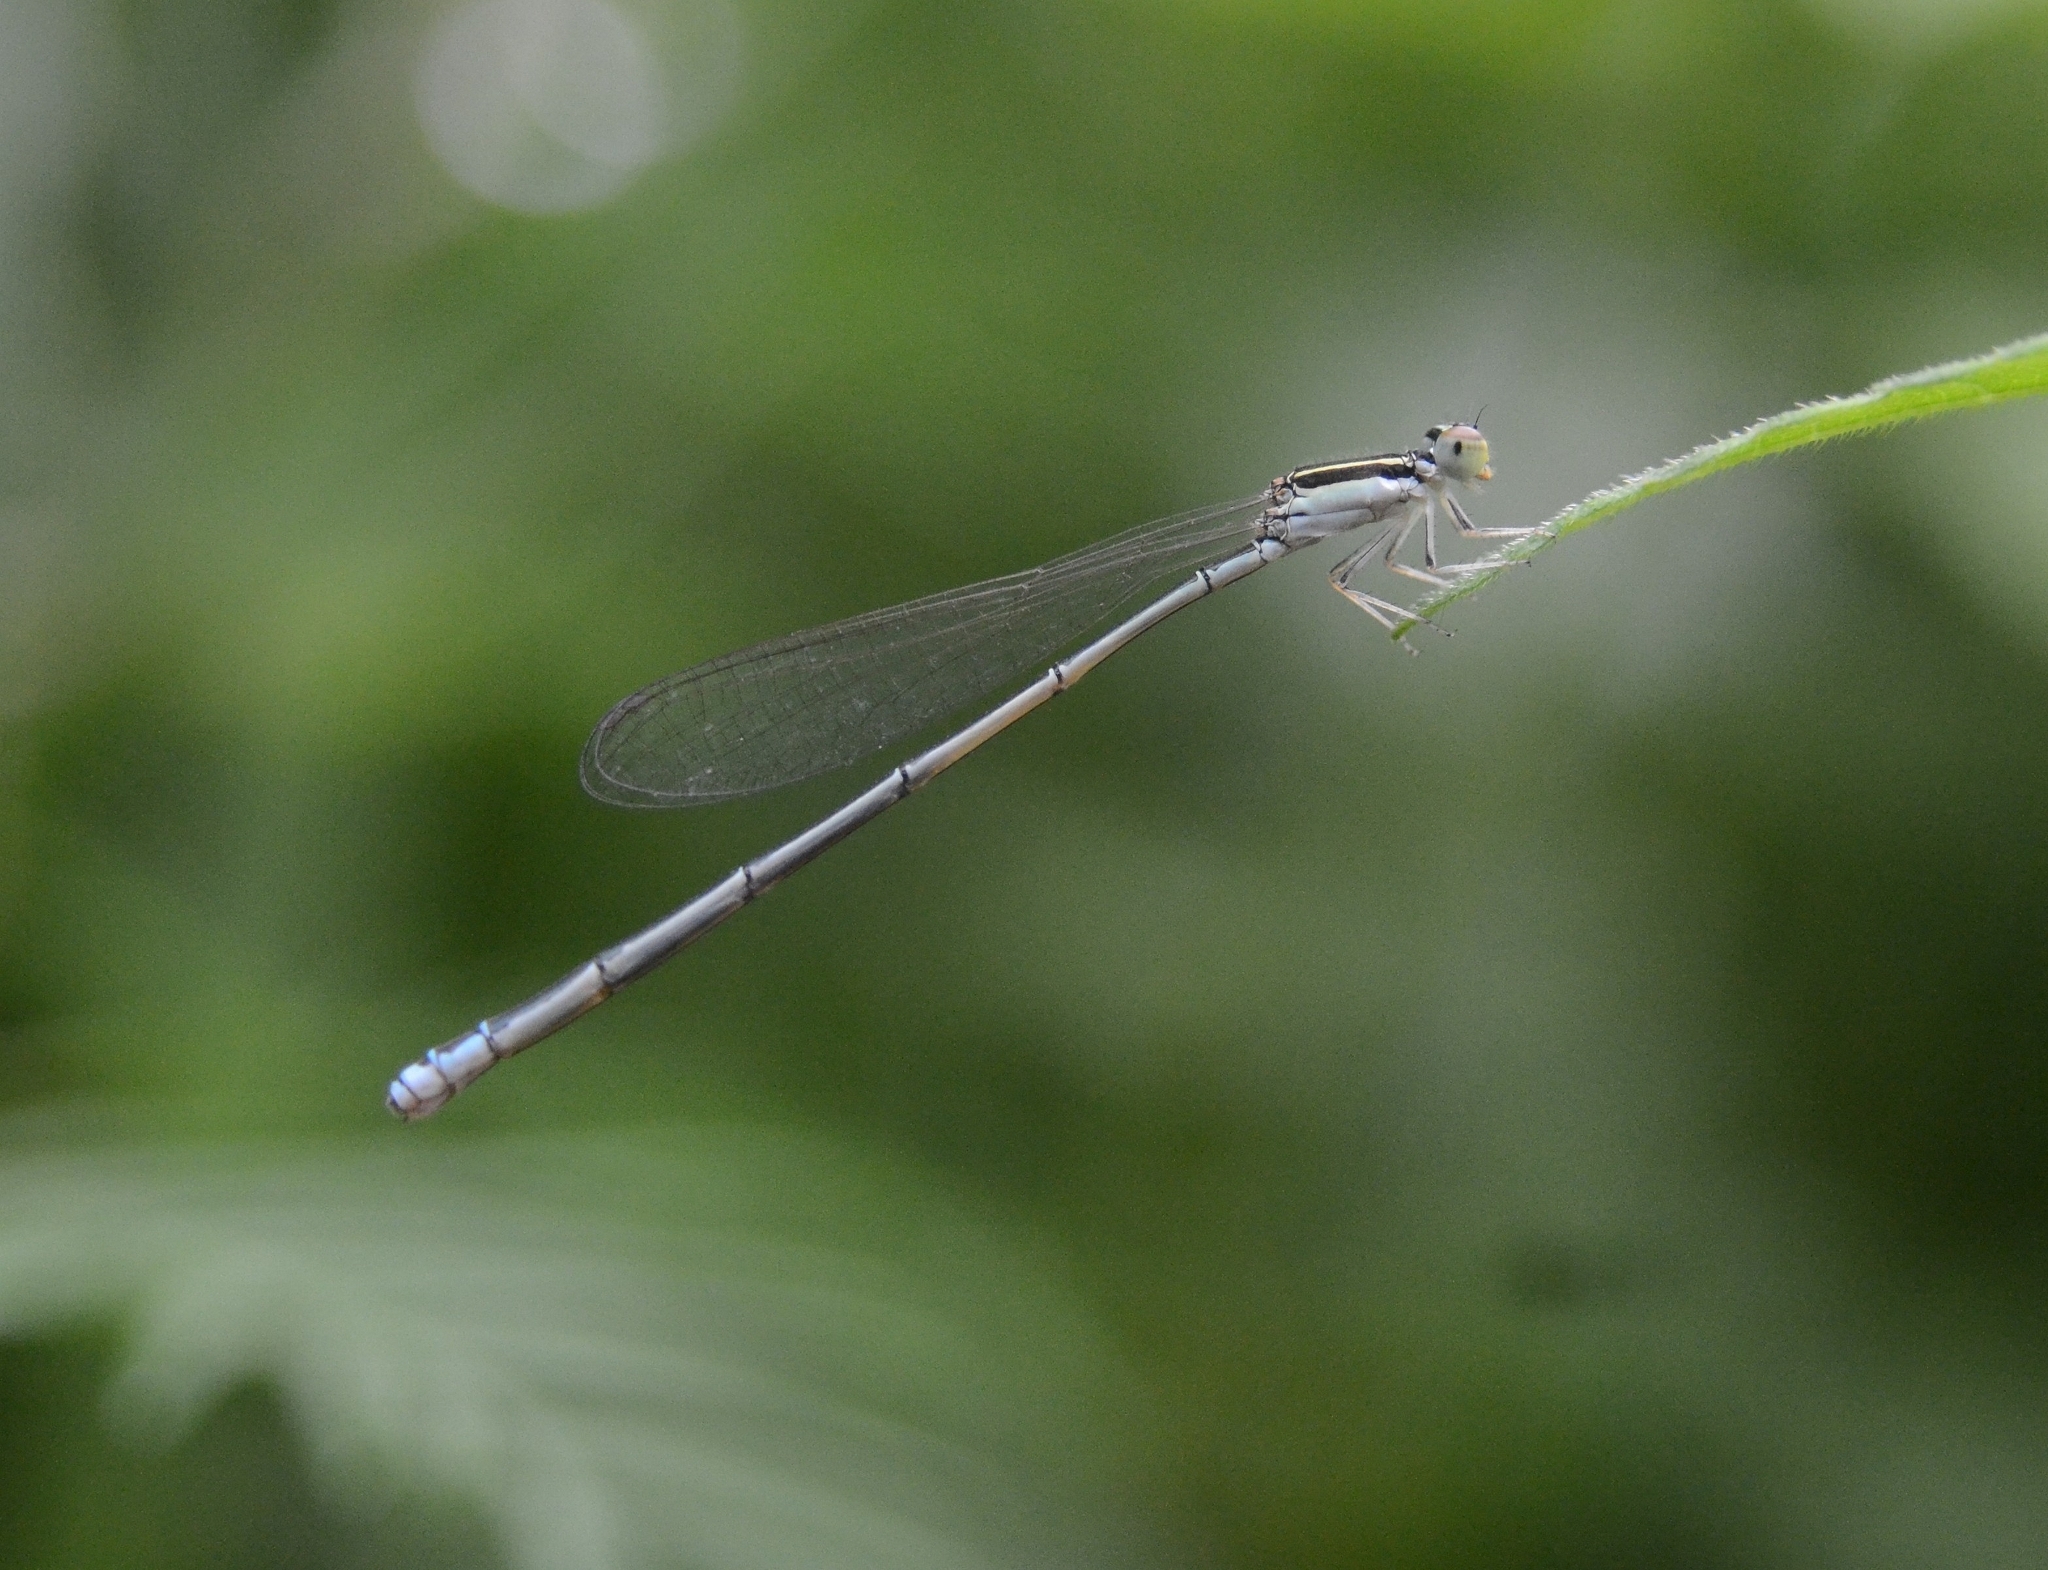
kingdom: Animalia
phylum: Arthropoda
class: Insecta
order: Odonata
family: Coenagrionidae
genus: Aciagrion
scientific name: Aciagrion occidentale
